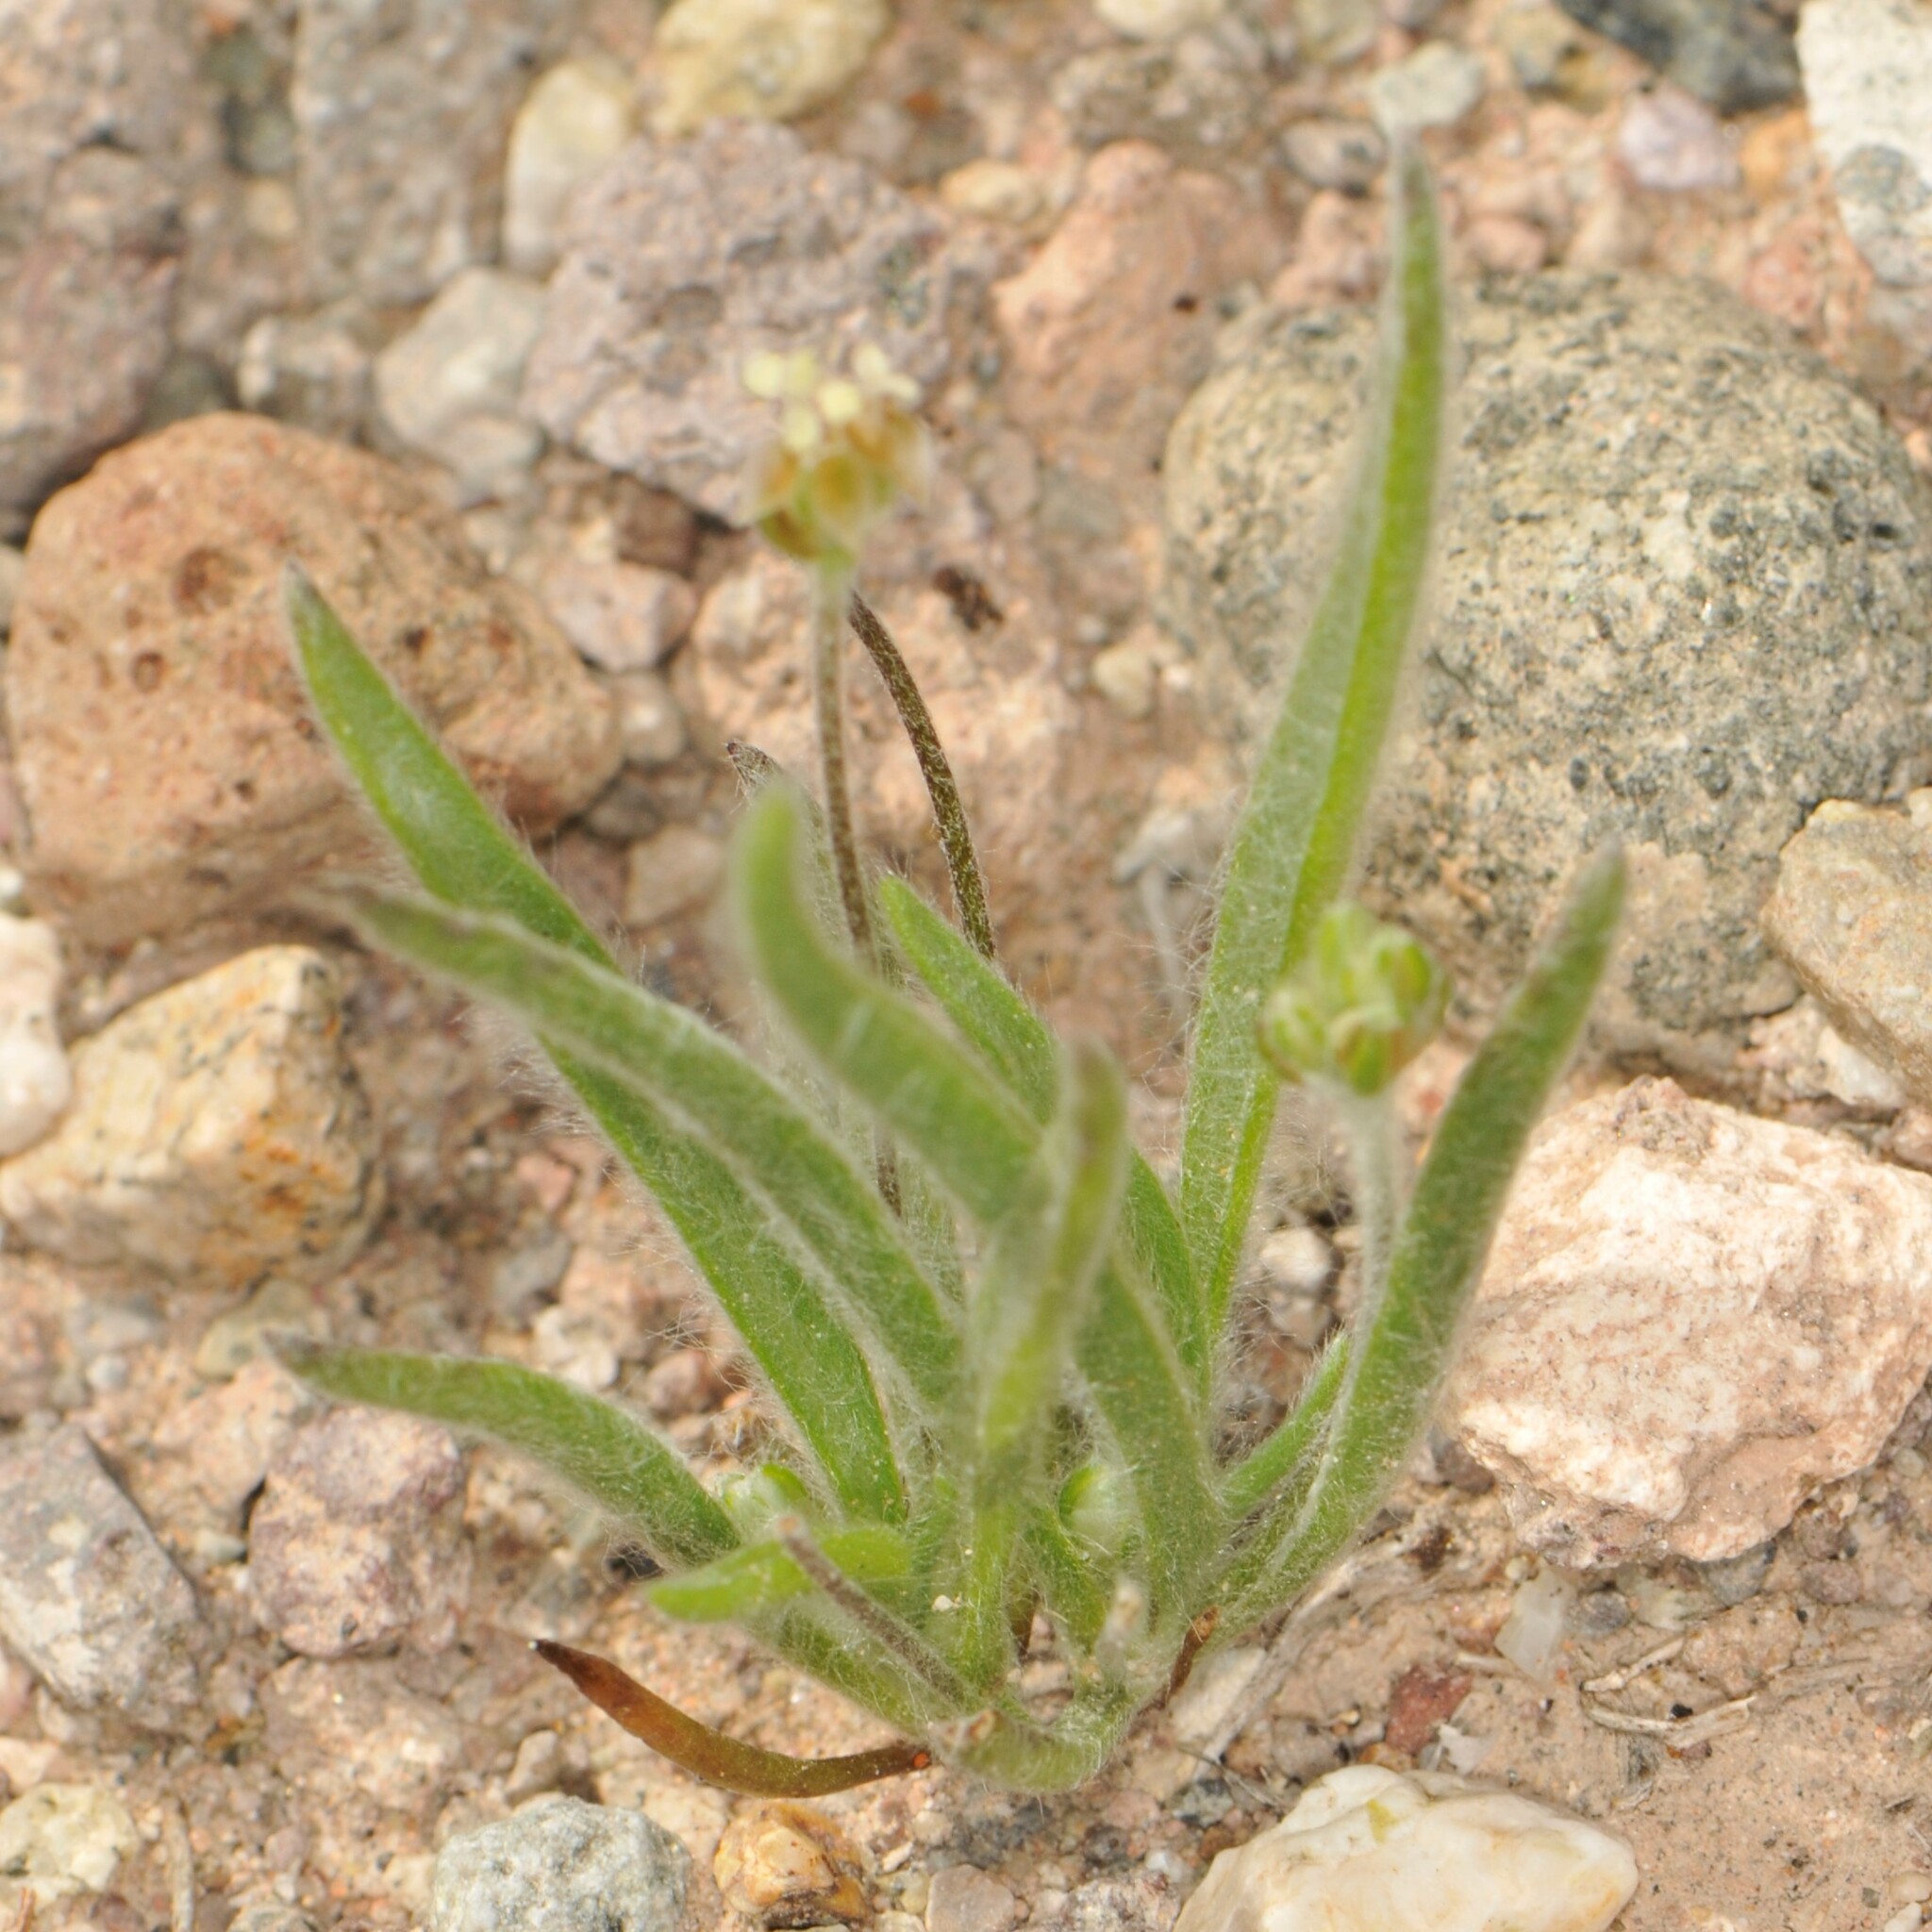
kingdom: Plantae
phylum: Tracheophyta
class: Magnoliopsida
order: Lamiales
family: Plantaginaceae
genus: Plantago
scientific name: Plantago ovata
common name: Blond plantain
